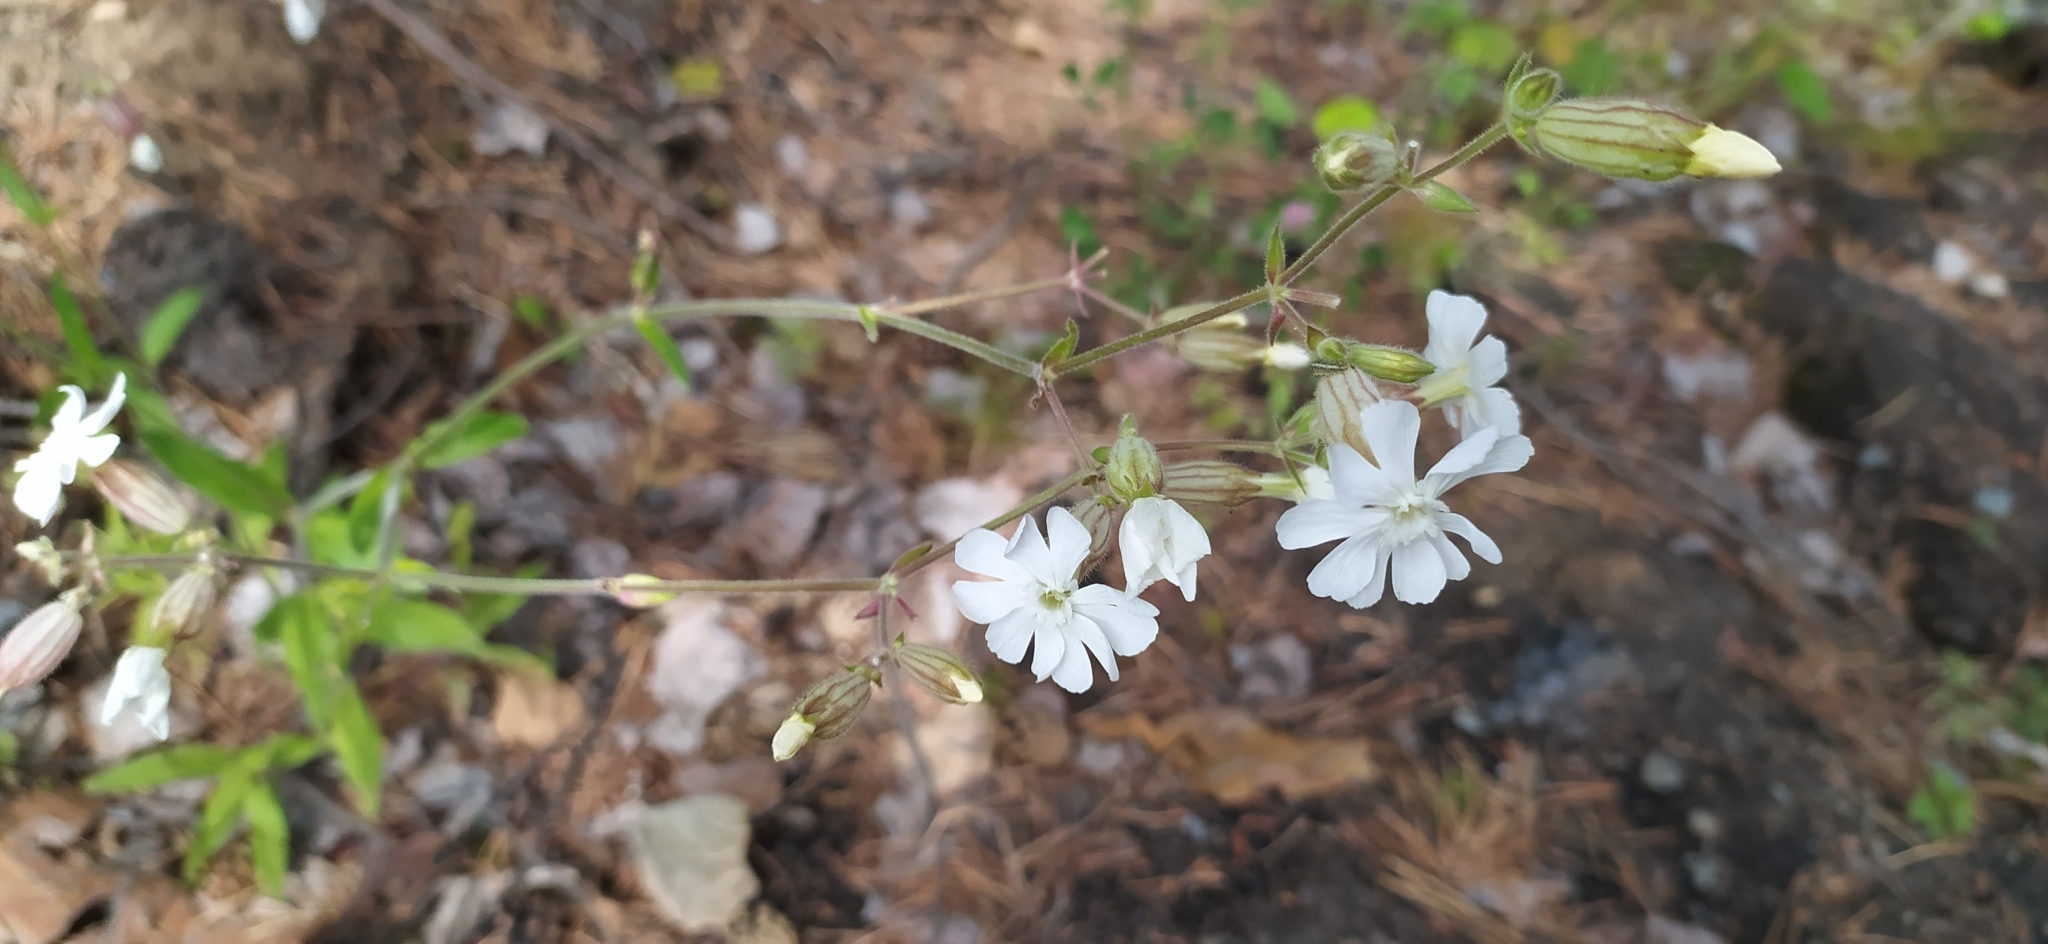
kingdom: Plantae
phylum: Tracheophyta
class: Magnoliopsida
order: Caryophyllales
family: Caryophyllaceae
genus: Silene
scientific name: Silene latifolia
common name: White campion
